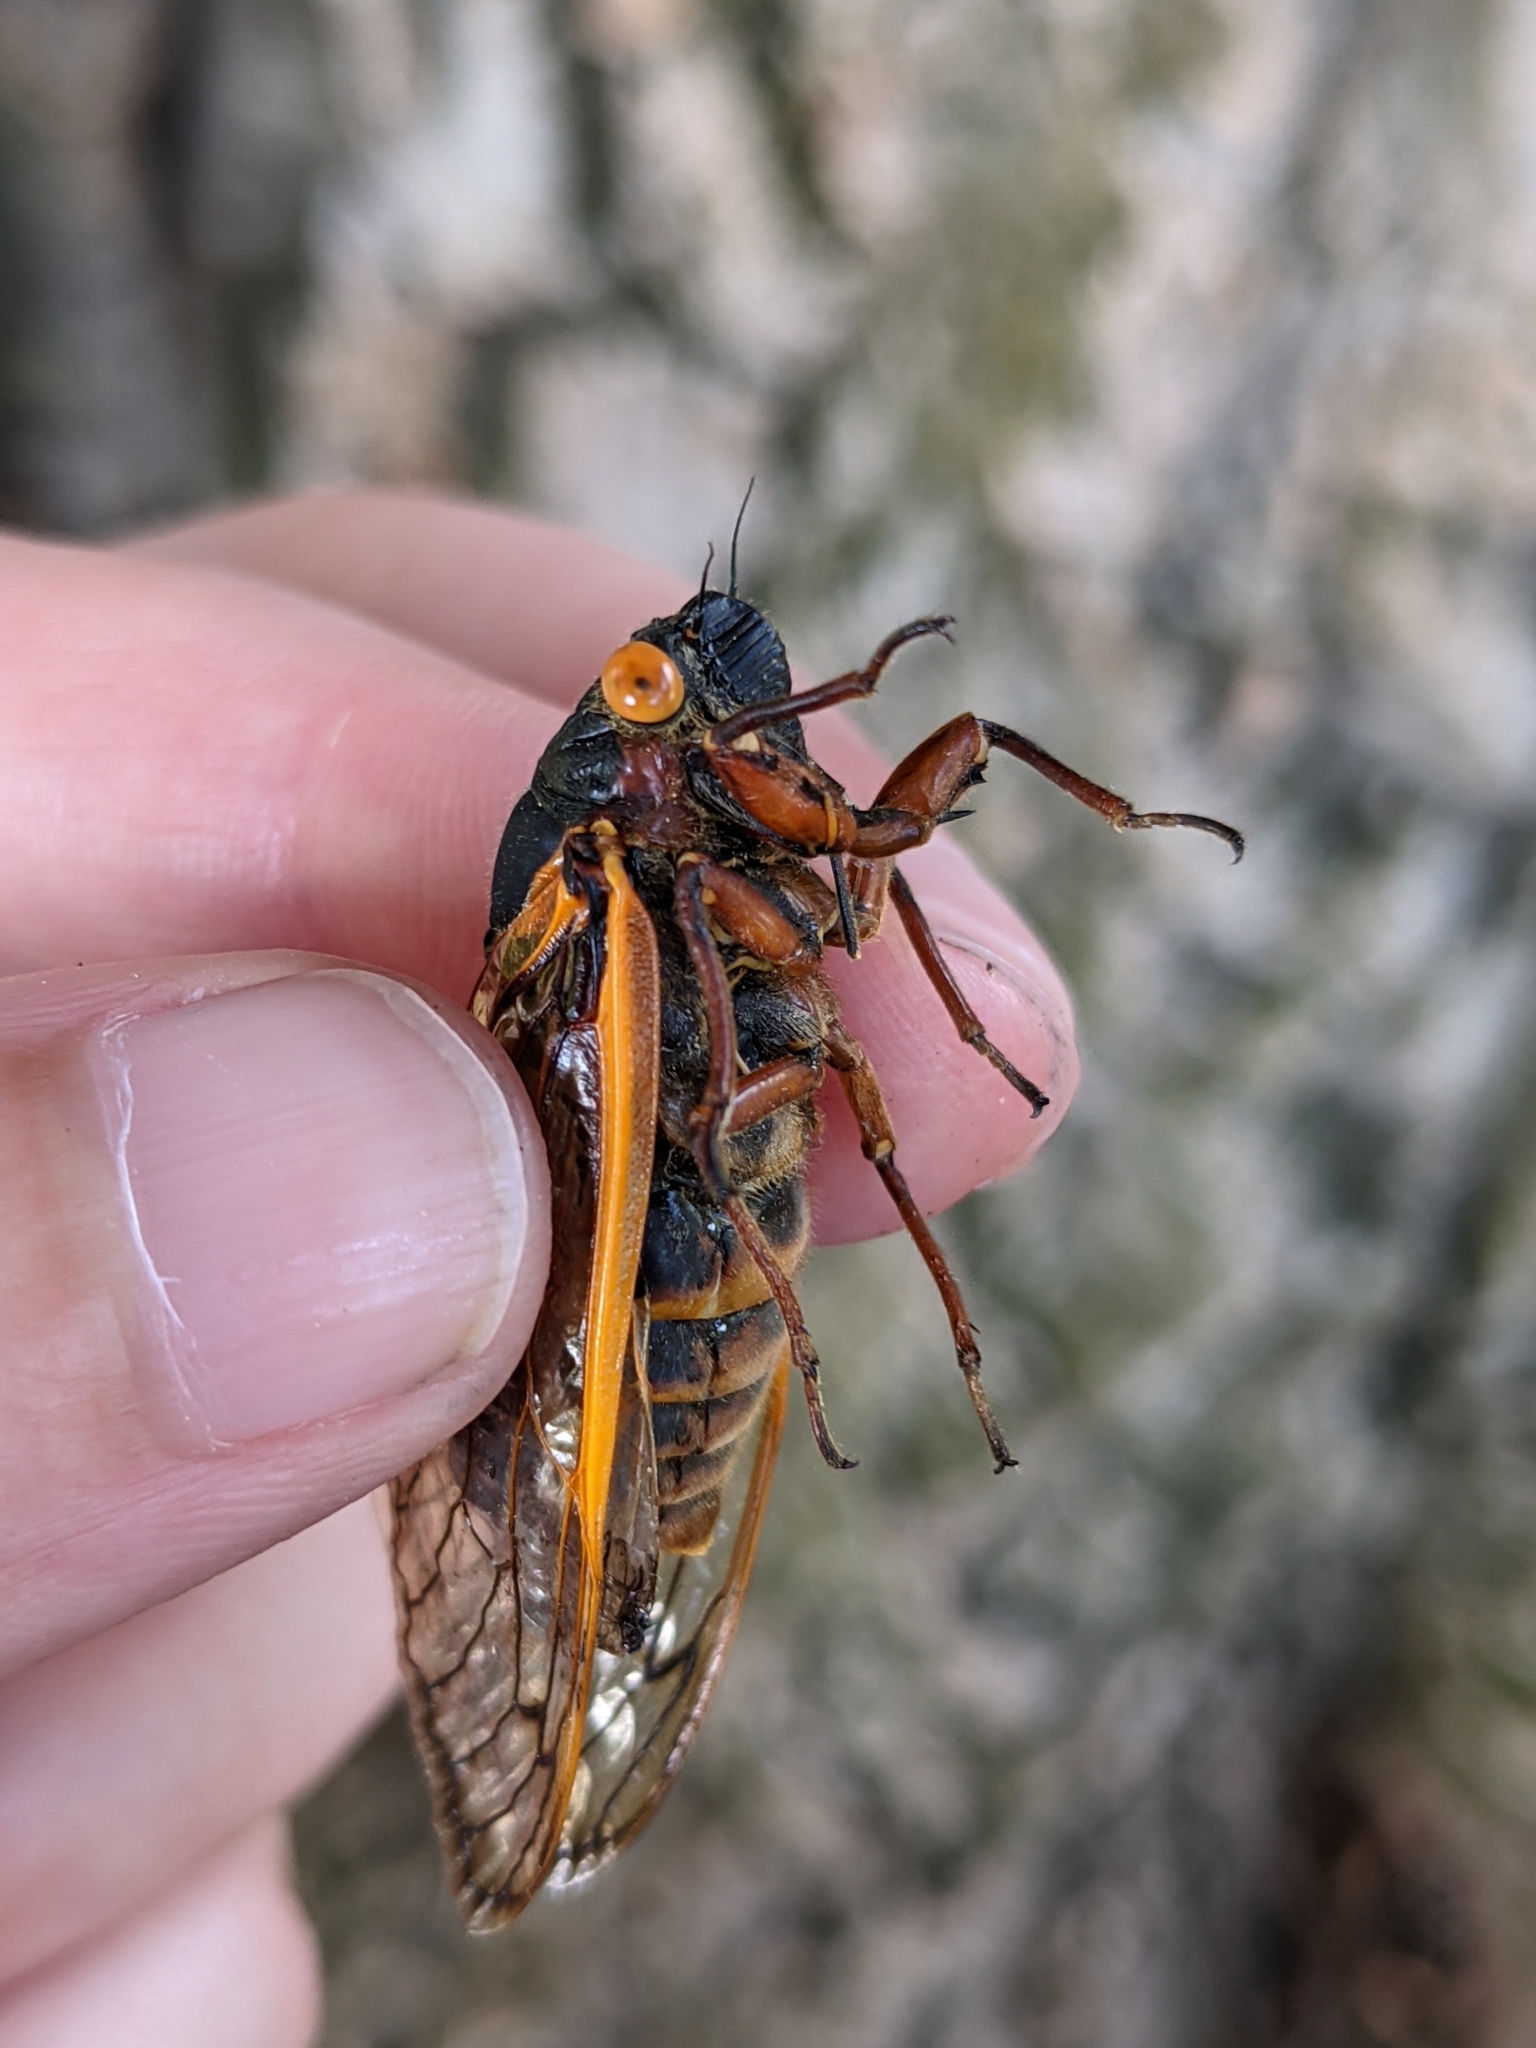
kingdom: Animalia
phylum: Arthropoda
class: Insecta
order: Hemiptera
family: Cicadidae
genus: Magicicada
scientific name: Magicicada septendecim
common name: Periodical cicada
